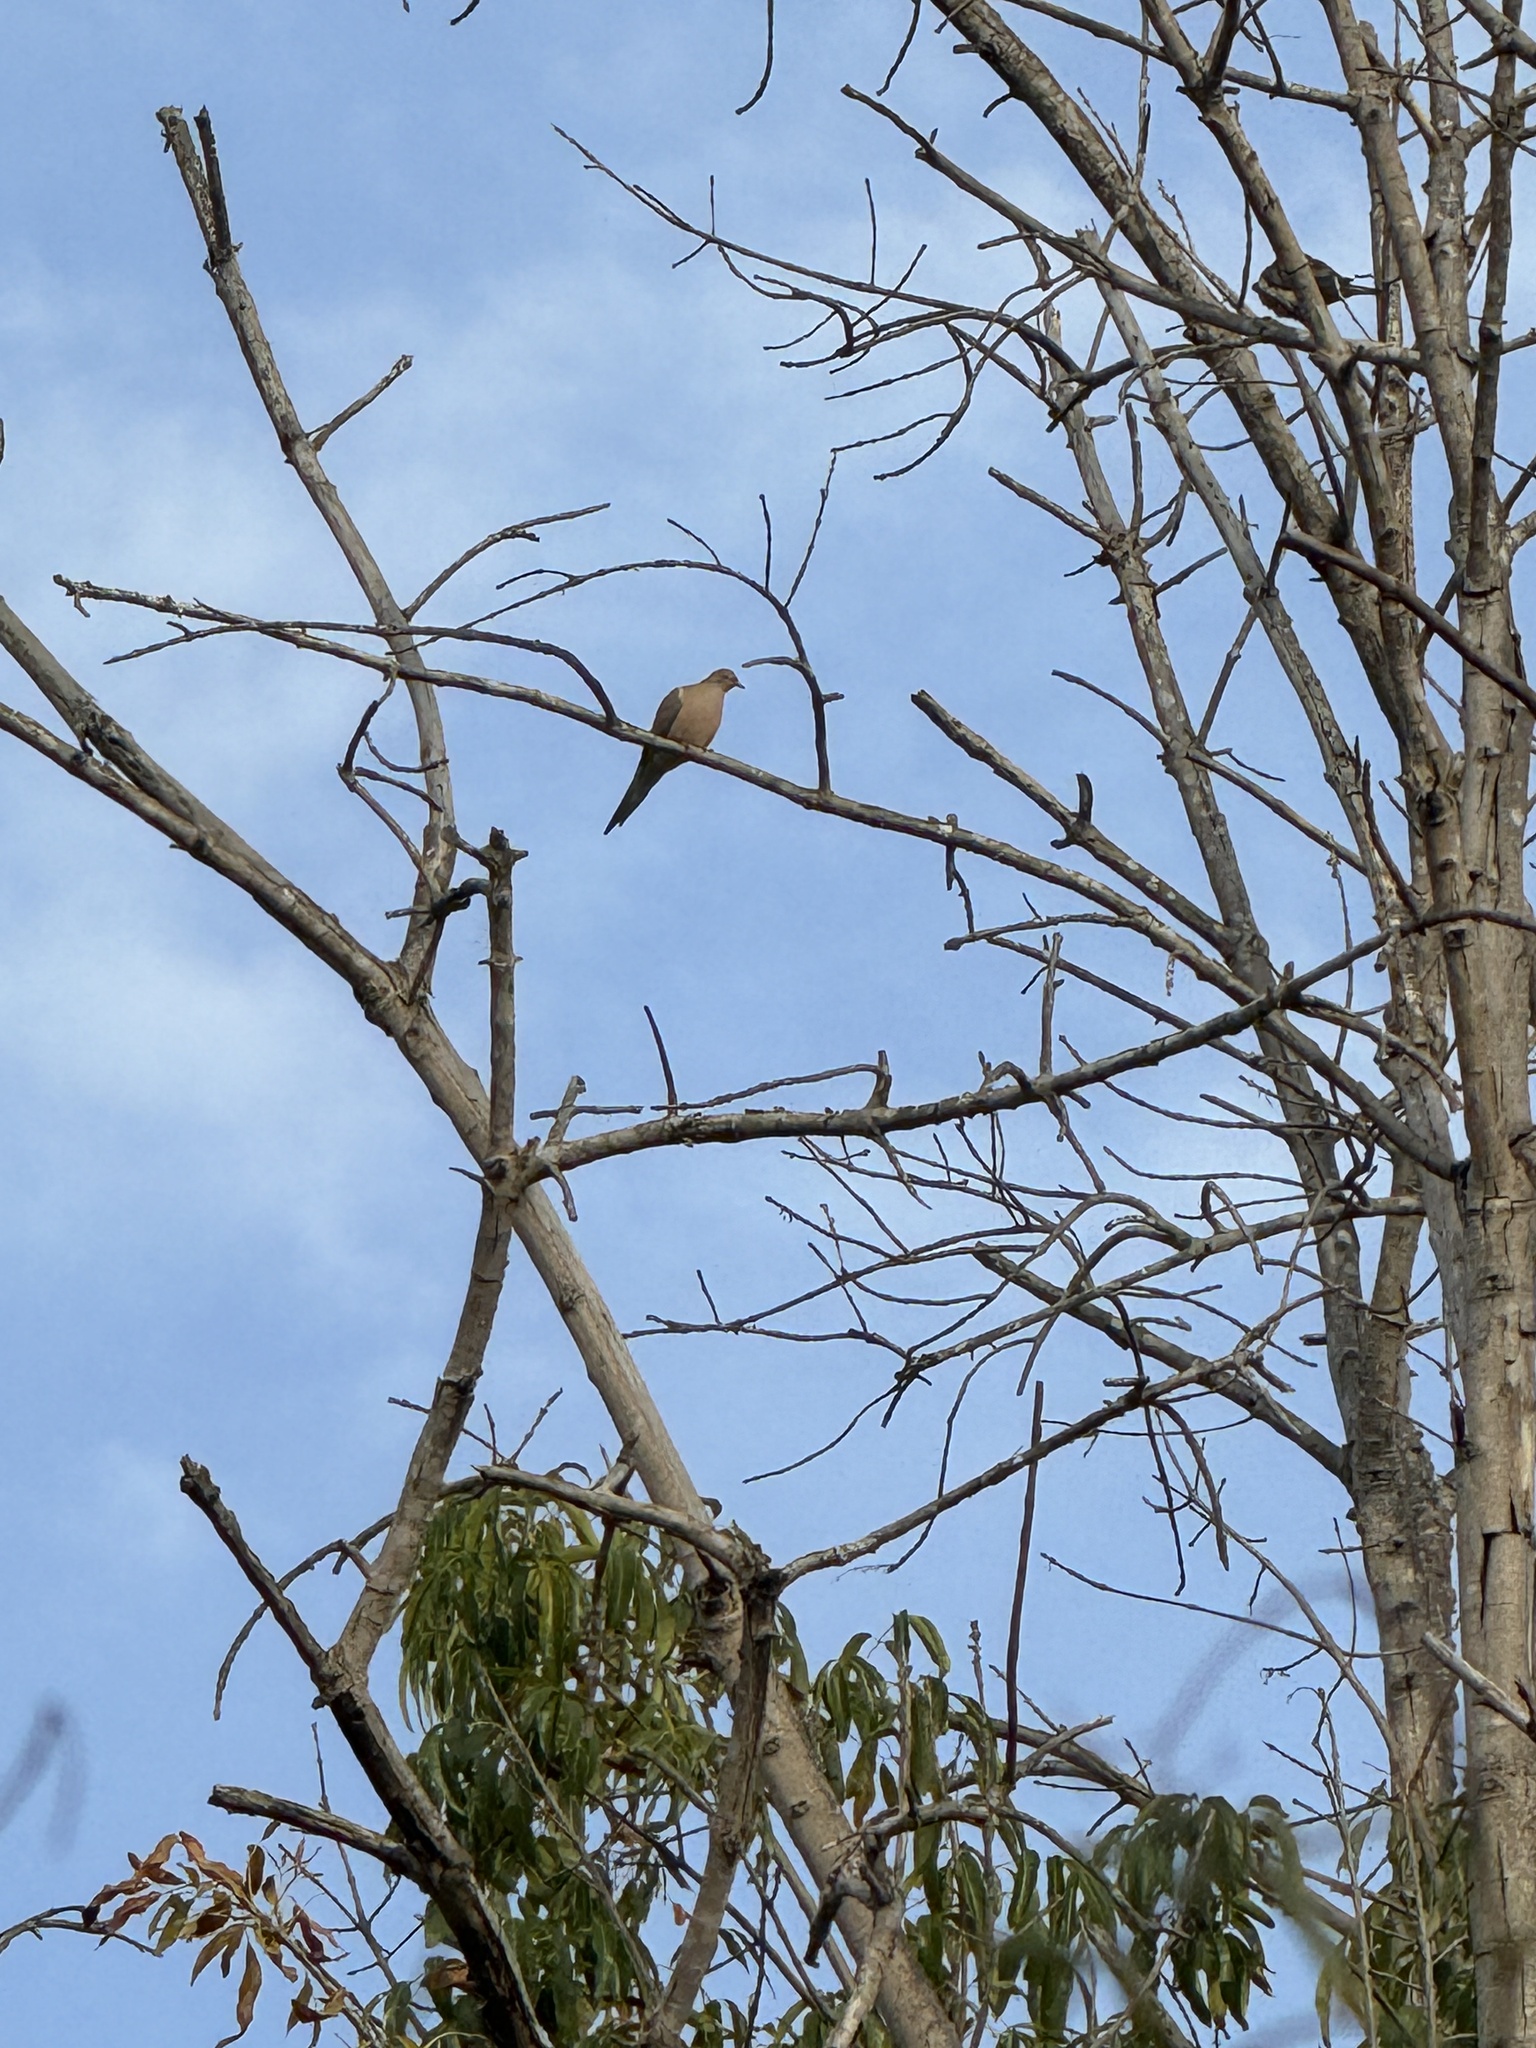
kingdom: Animalia
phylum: Chordata
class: Aves
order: Columbiformes
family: Columbidae
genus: Zenaida
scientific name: Zenaida macroura
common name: Mourning dove
